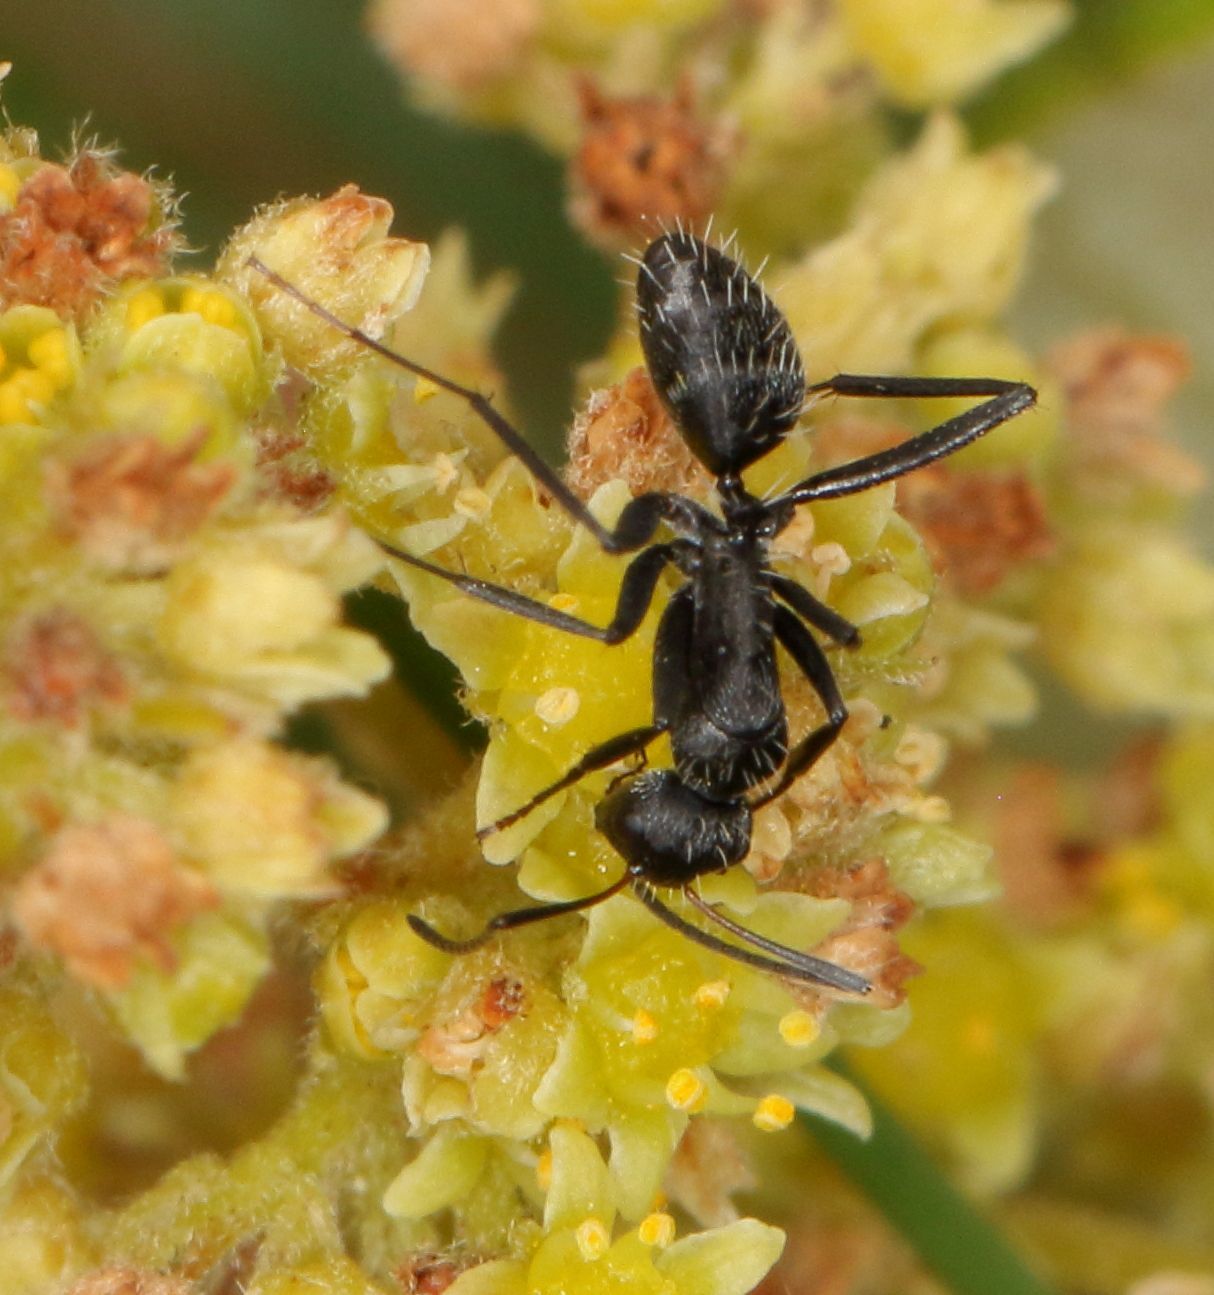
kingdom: Animalia
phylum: Arthropoda
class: Insecta
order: Hymenoptera
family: Formicidae
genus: Camponotus
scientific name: Camponotus niveosetosus
